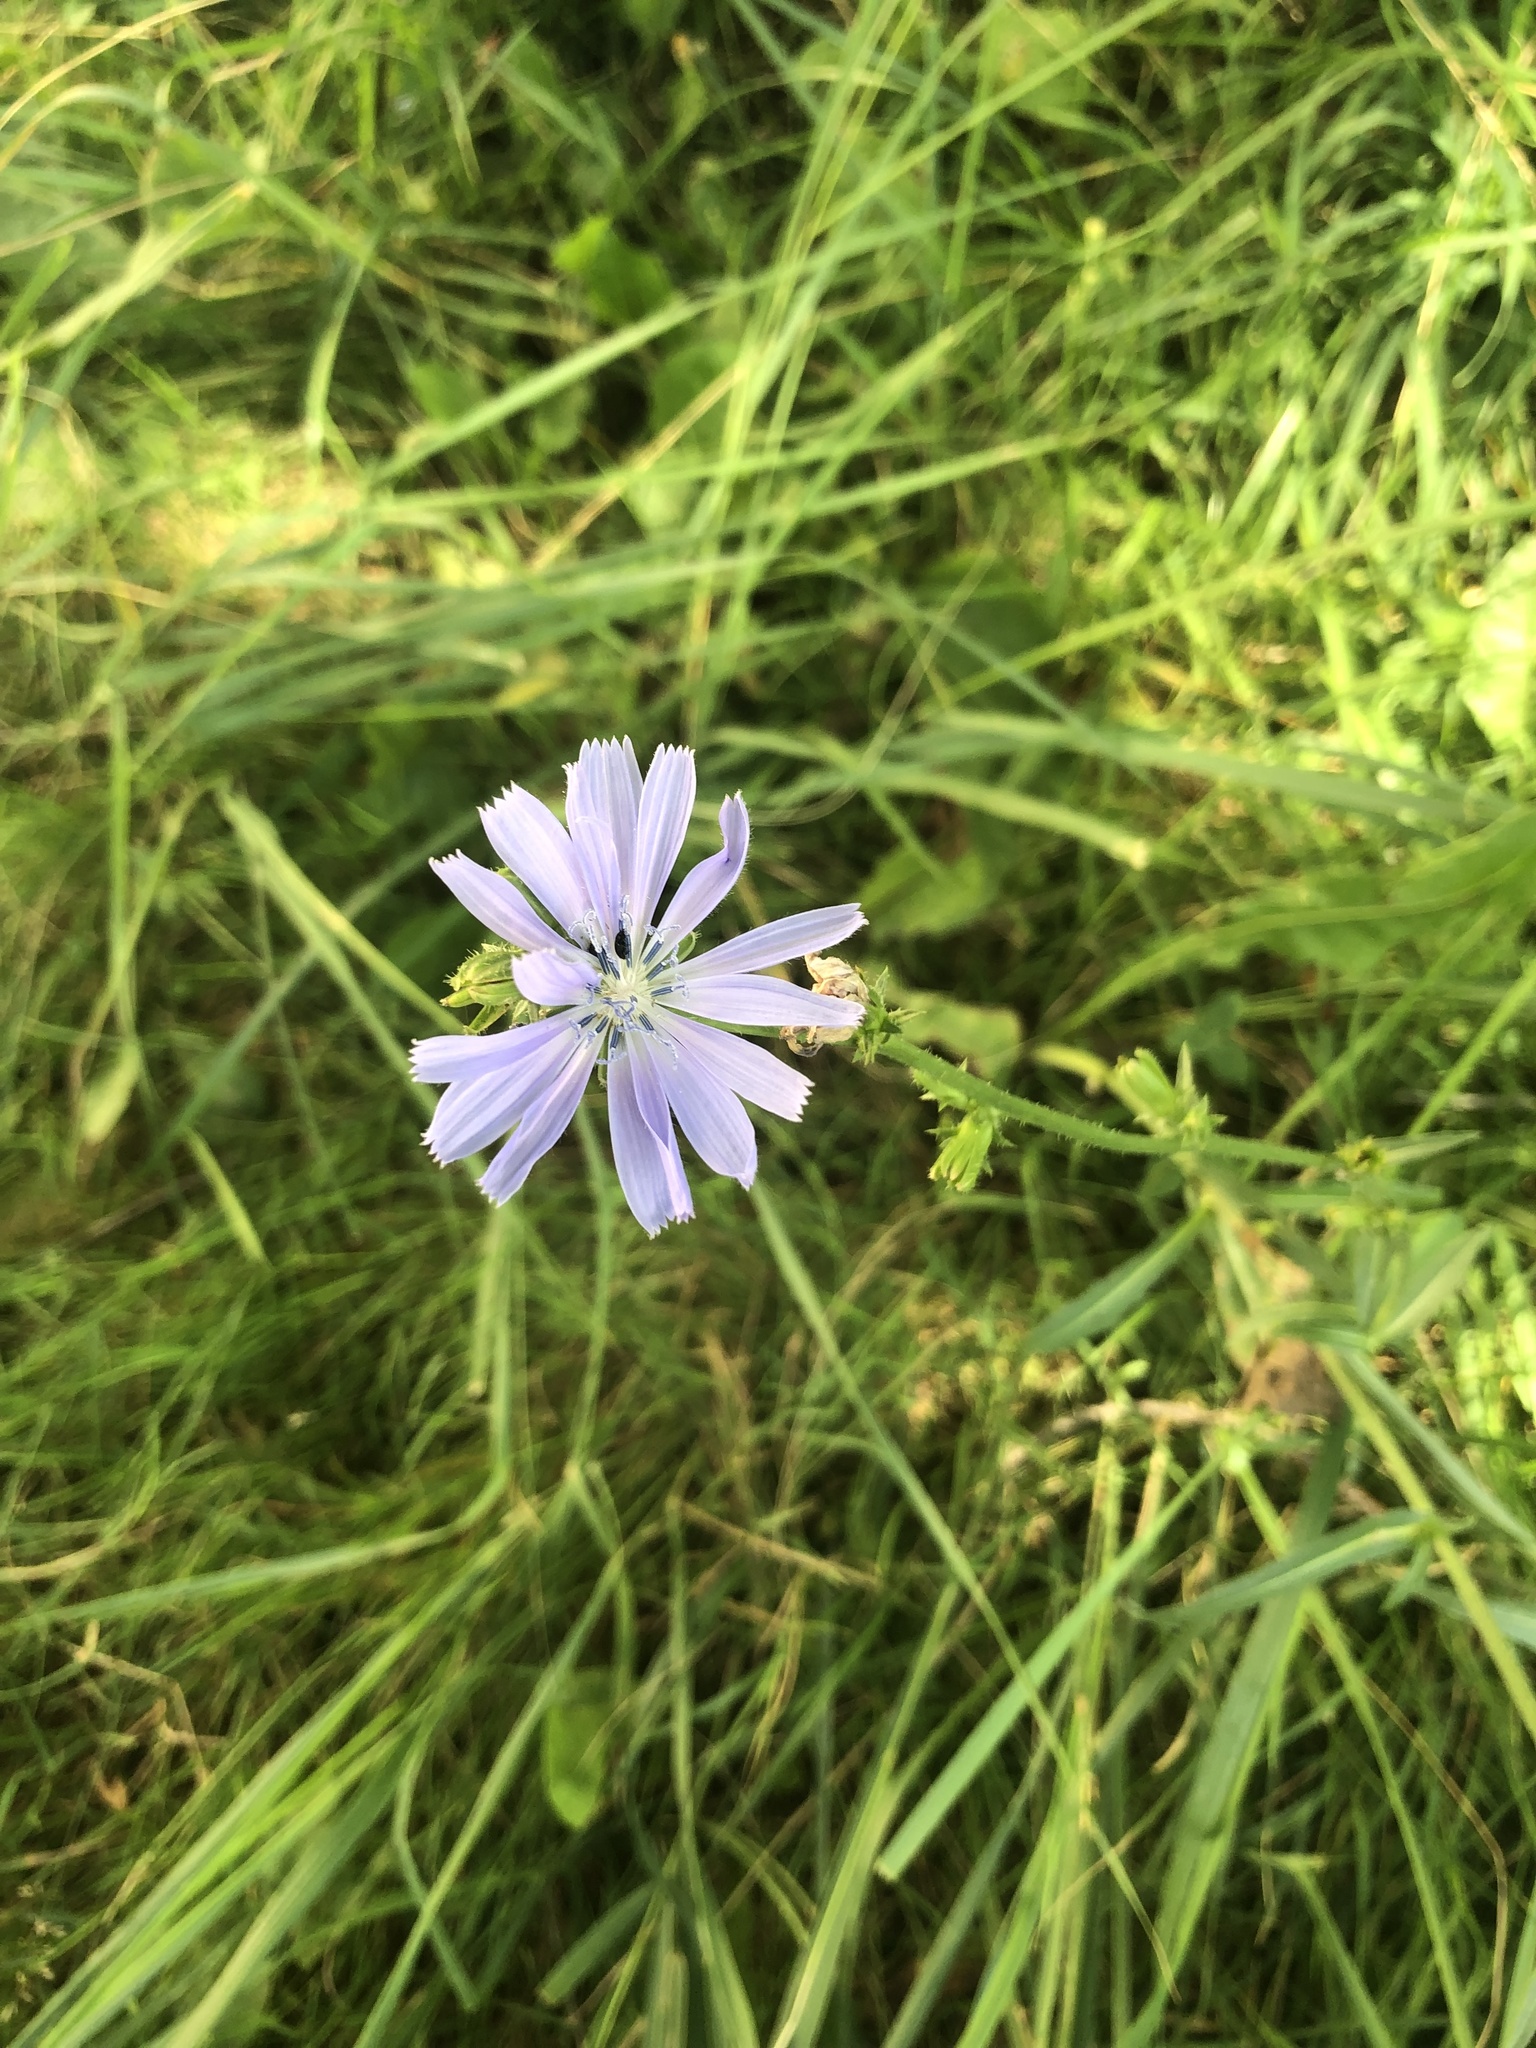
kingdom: Plantae
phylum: Tracheophyta
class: Magnoliopsida
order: Asterales
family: Asteraceae
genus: Cichorium
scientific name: Cichorium intybus
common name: Chicory
